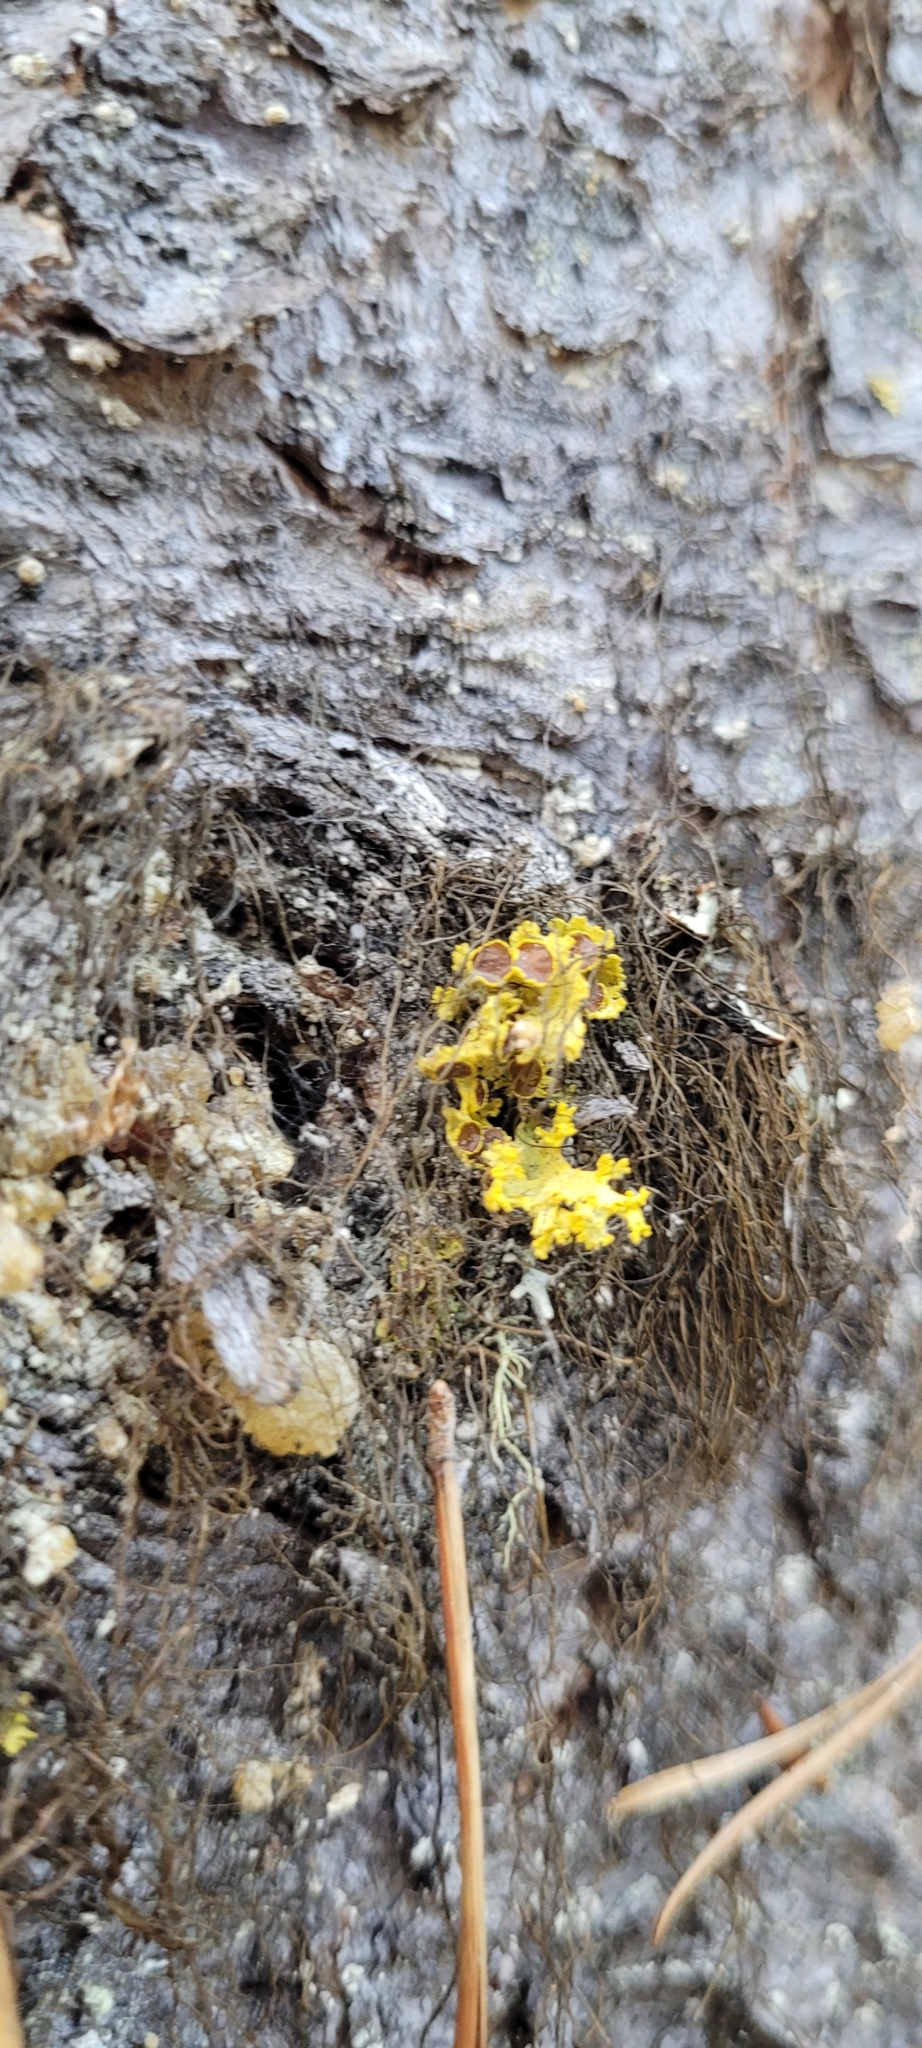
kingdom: Fungi
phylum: Ascomycota
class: Lecanoromycetes
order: Lecanorales
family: Parmeliaceae
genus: Vulpicida
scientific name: Vulpicida canadensis
